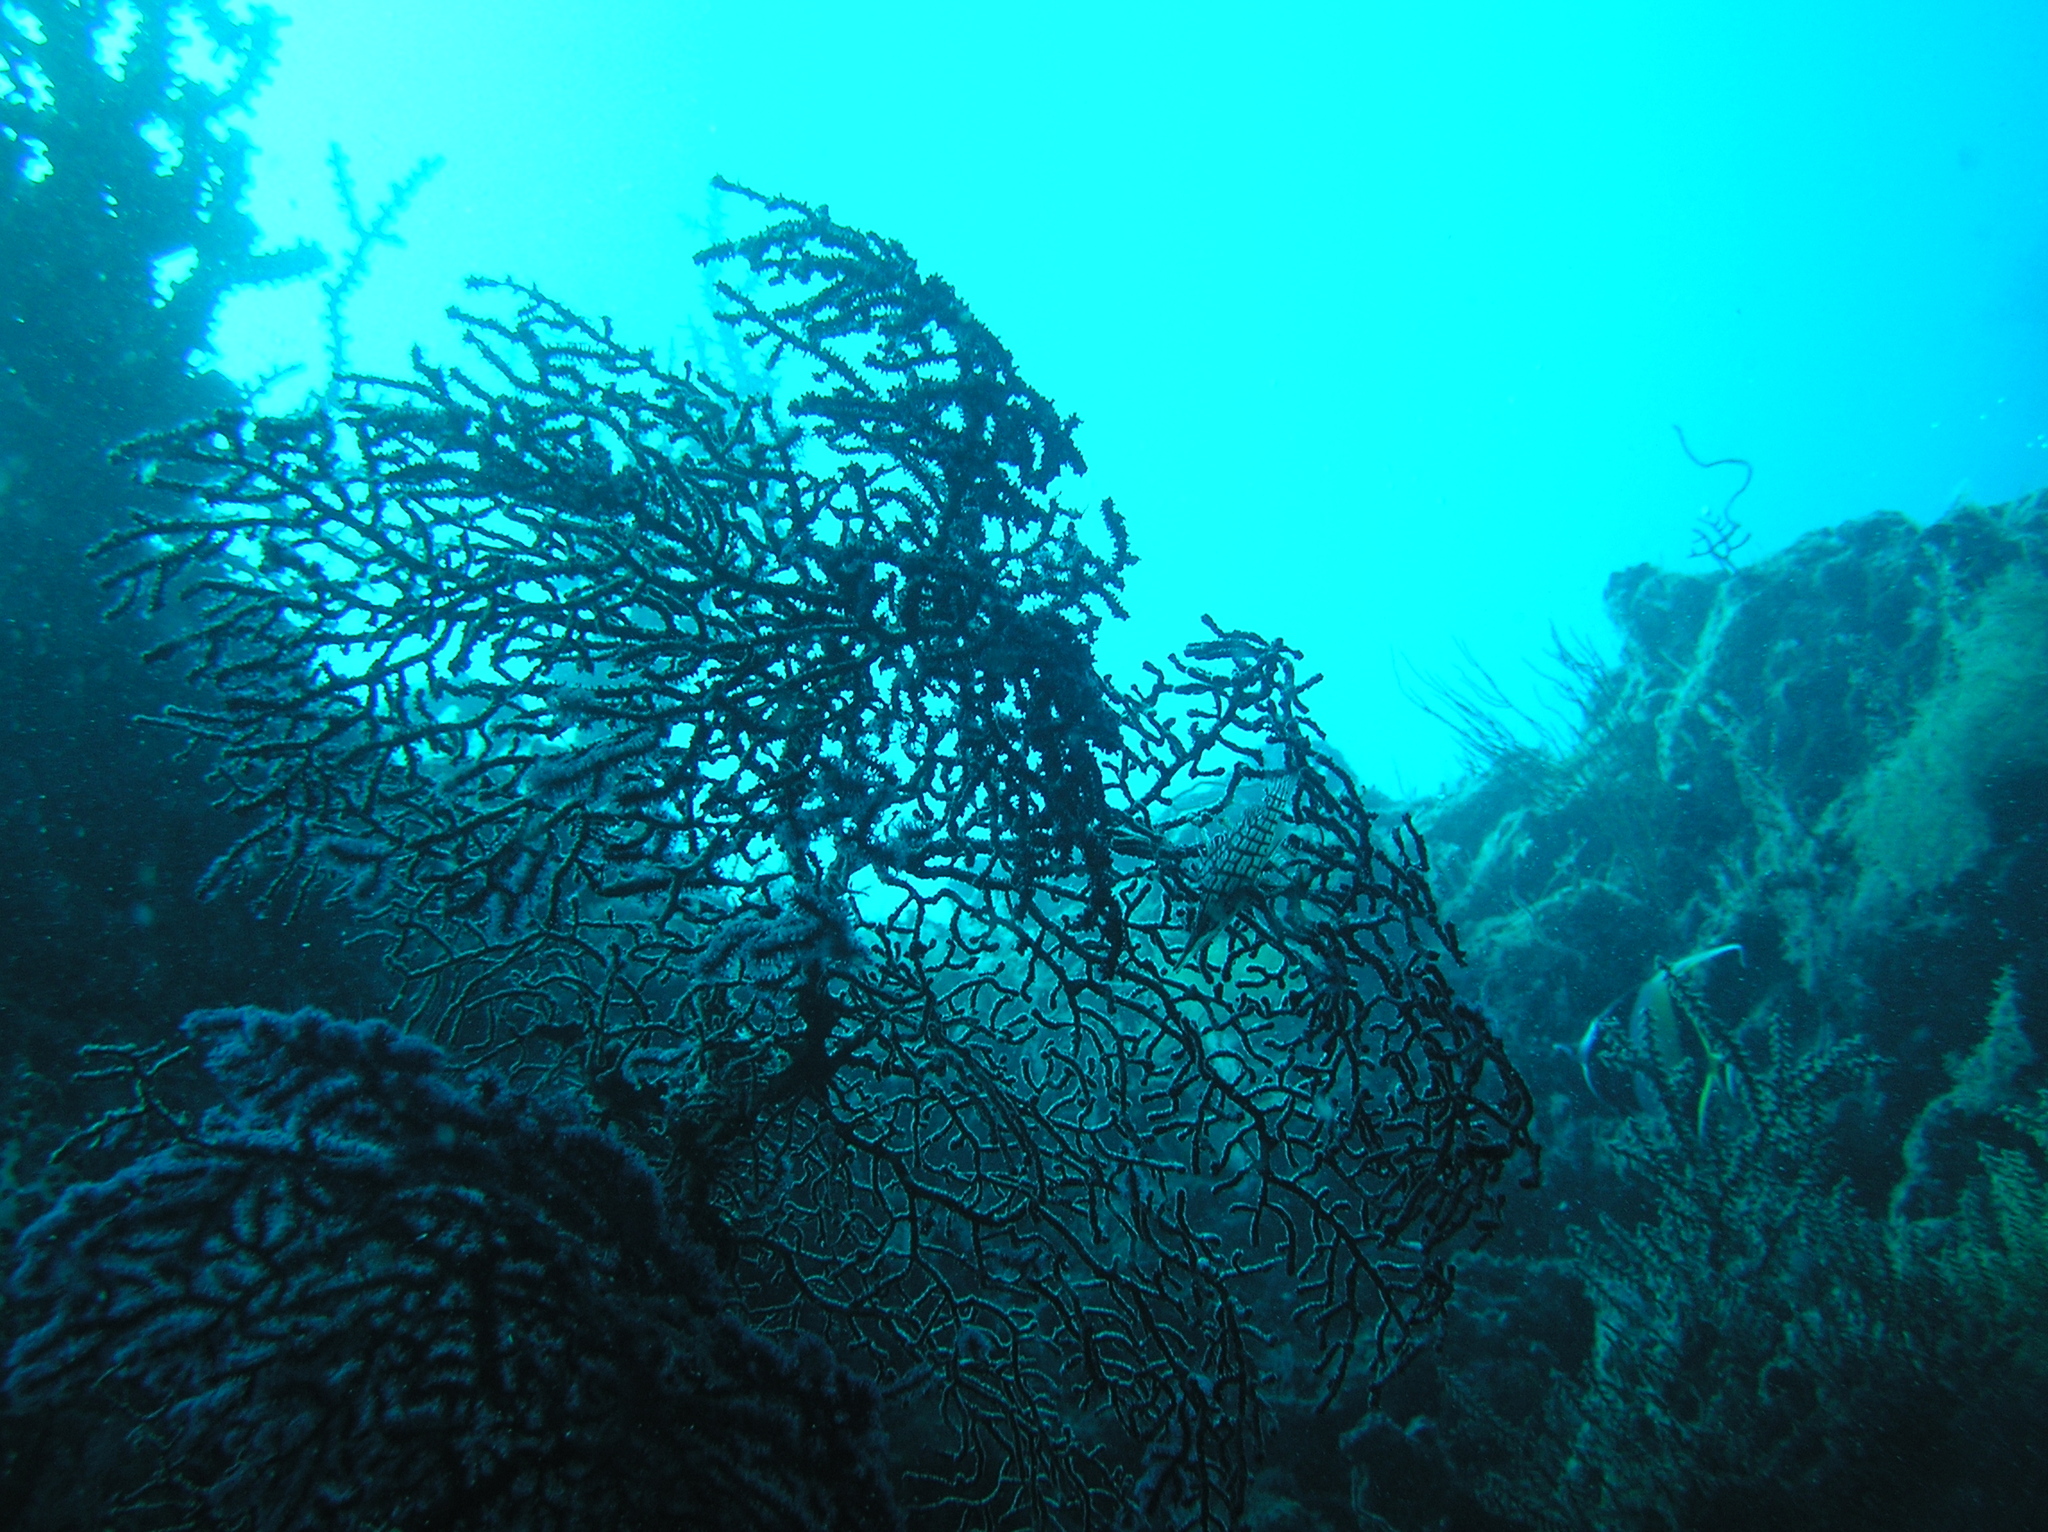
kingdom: Animalia
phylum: Chordata
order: Perciformes
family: Cirrhitidae
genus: Oxycirrhites
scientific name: Oxycirrhites typus
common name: Longnose hawkfish
